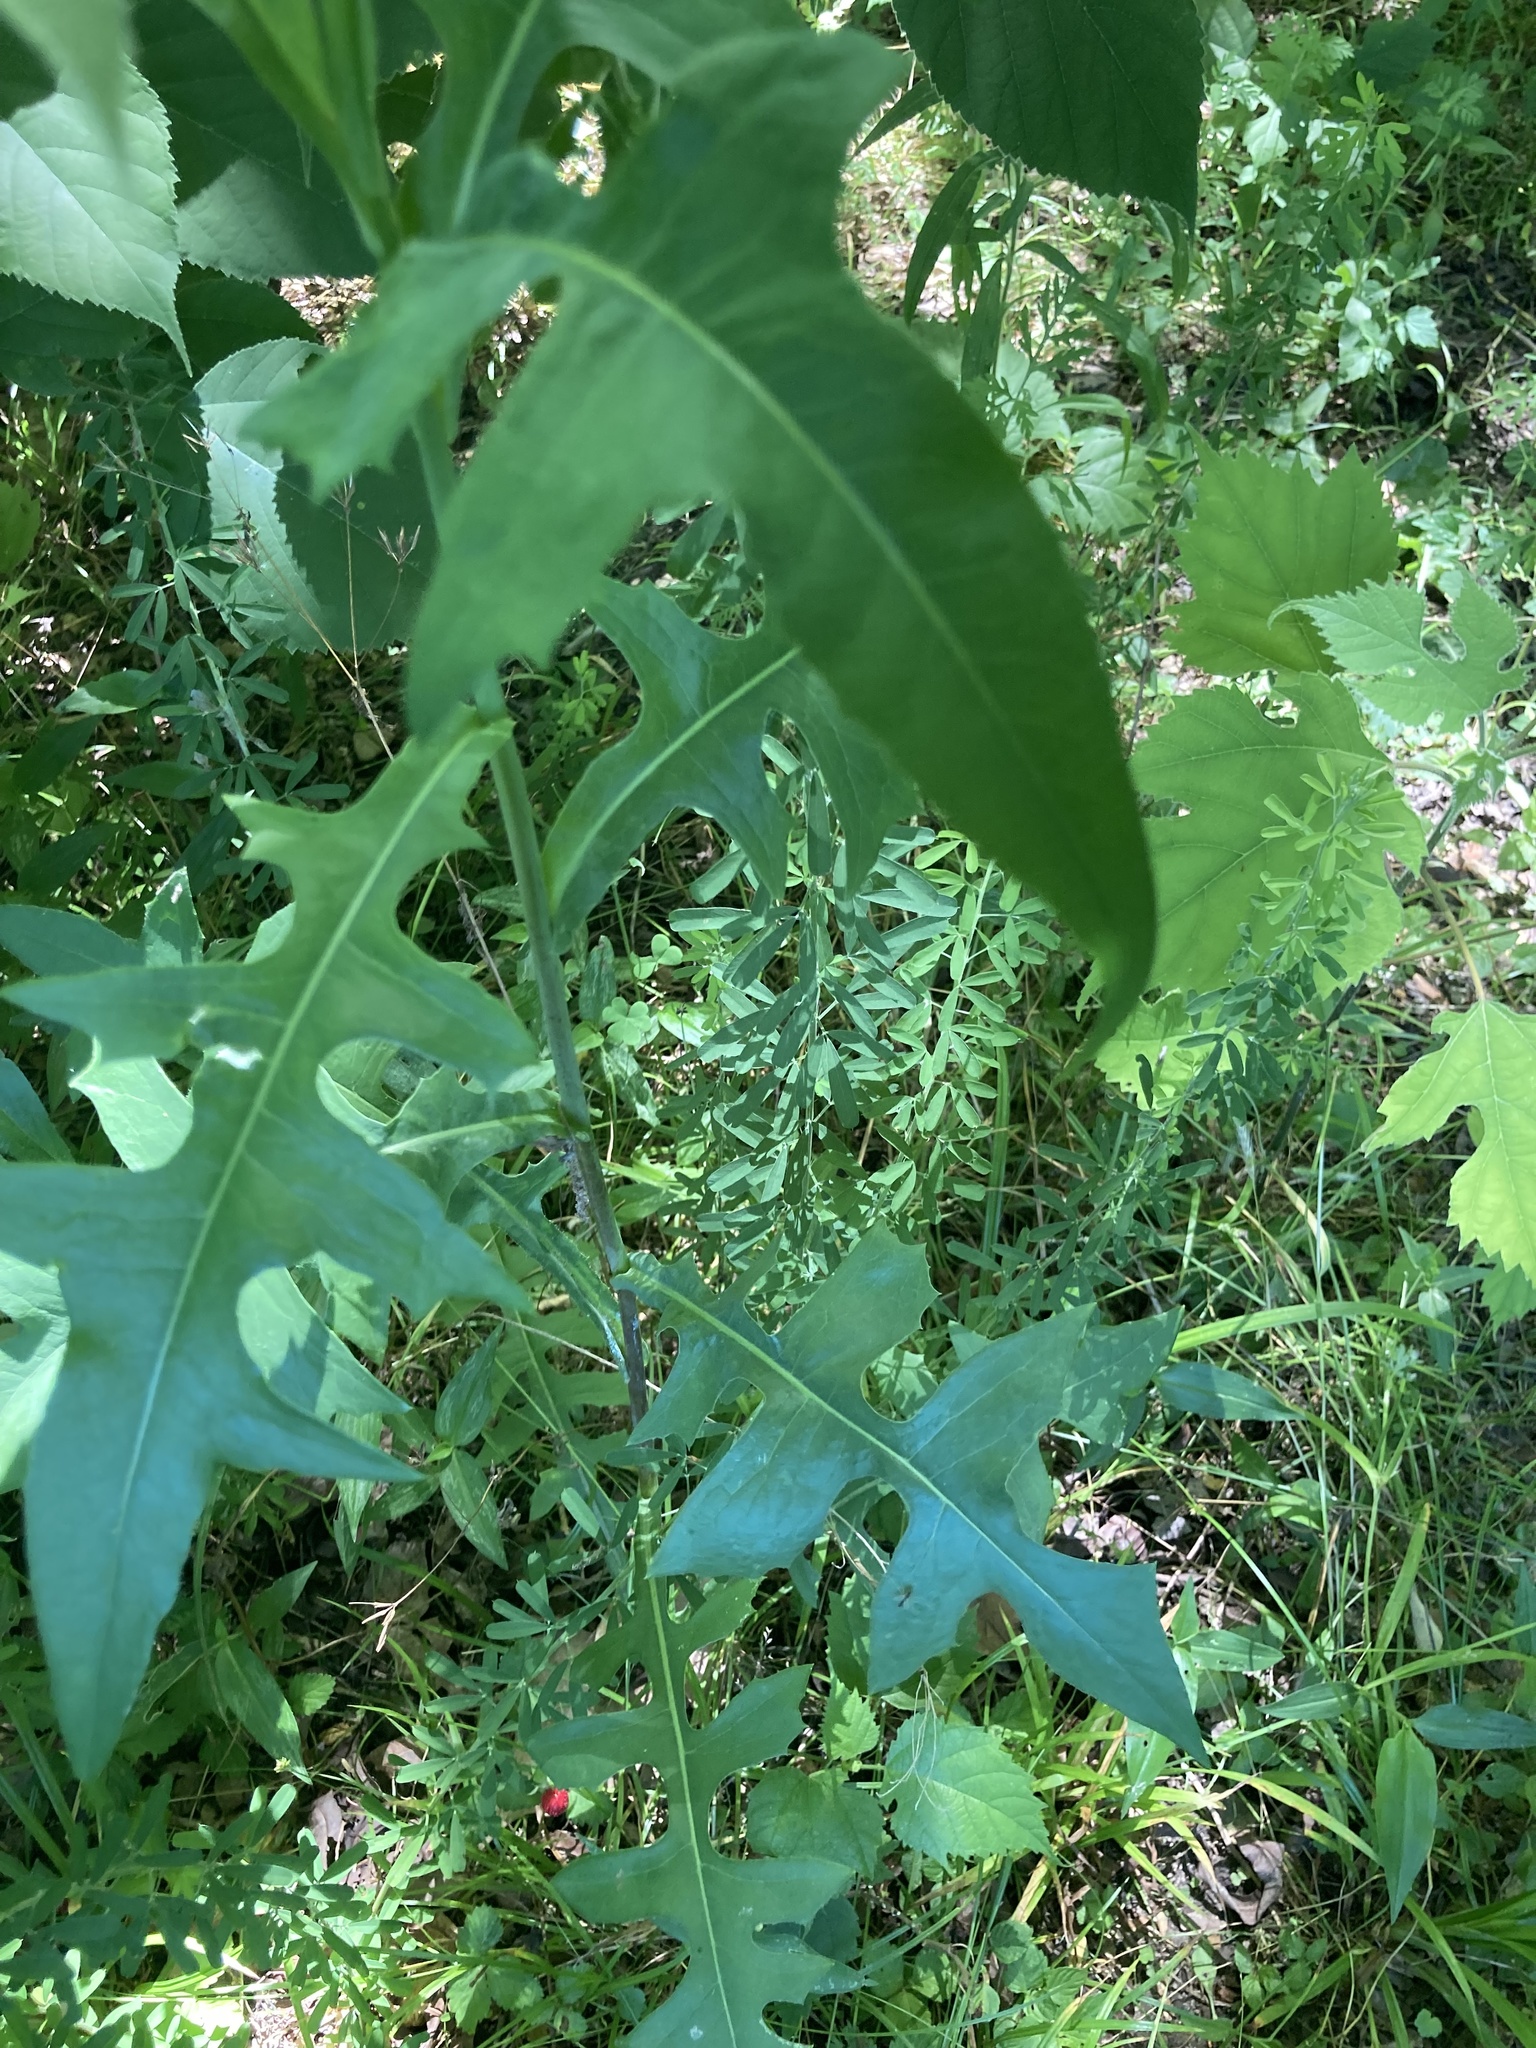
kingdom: Plantae
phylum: Tracheophyta
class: Magnoliopsida
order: Asterales
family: Asteraceae
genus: Lactuca
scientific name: Lactuca canadensis
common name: Canada lettuce
